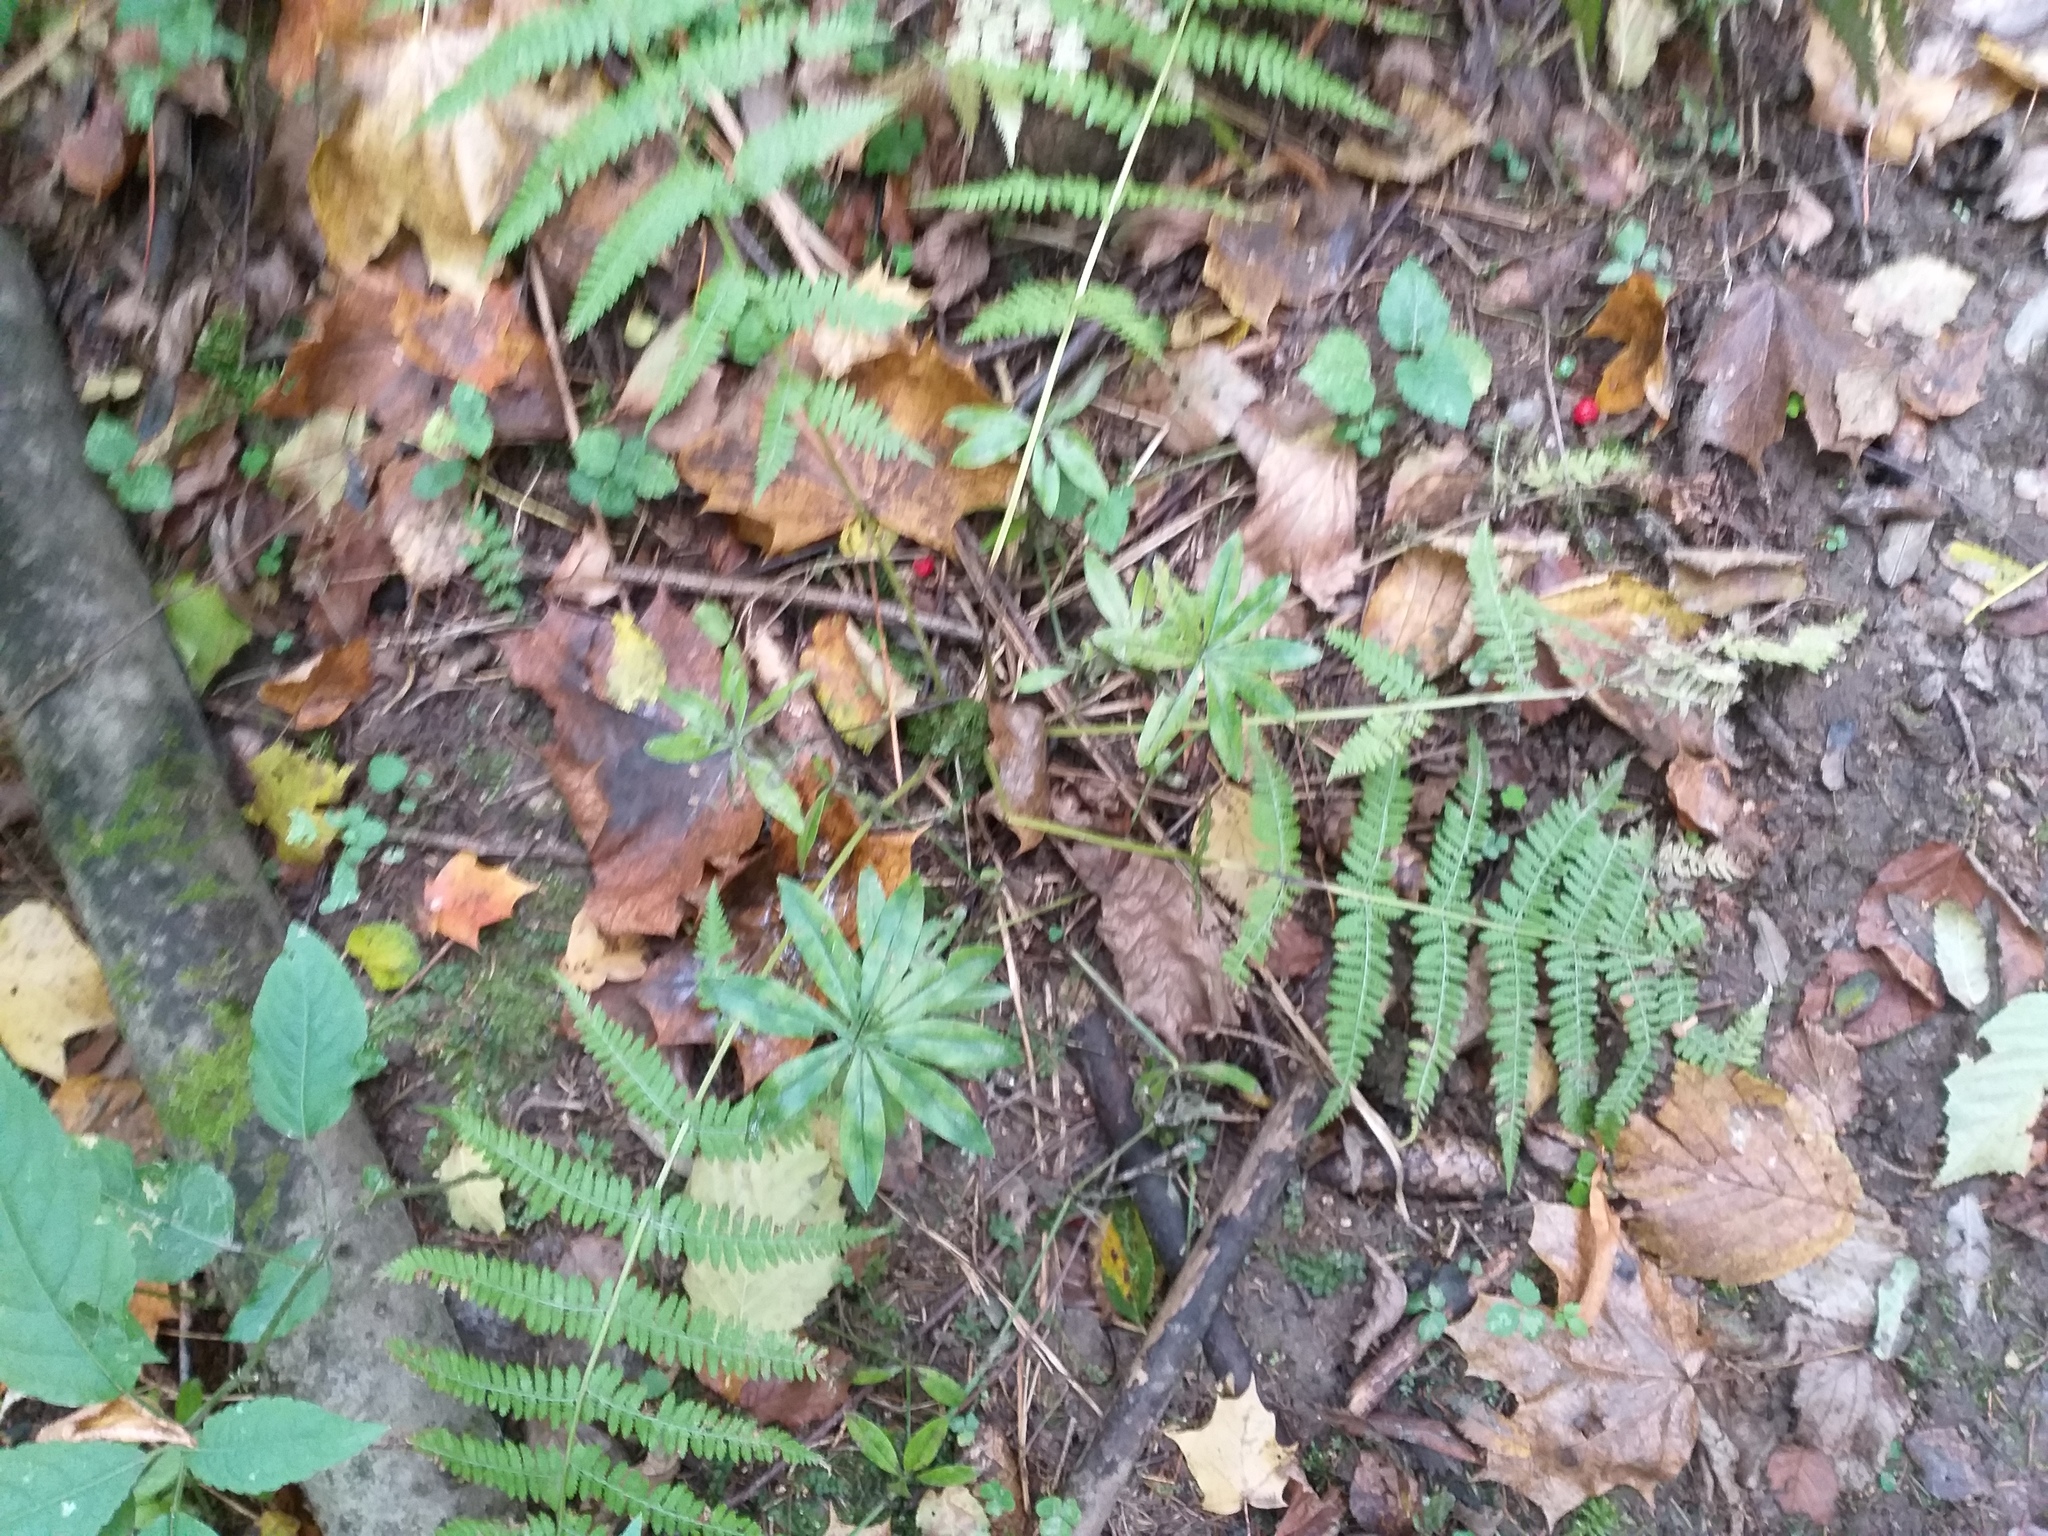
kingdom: Plantae
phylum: Tracheophyta
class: Magnoliopsida
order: Gentianales
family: Rubiaceae
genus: Galium
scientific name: Galium odoratum
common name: Sweet woodruff
